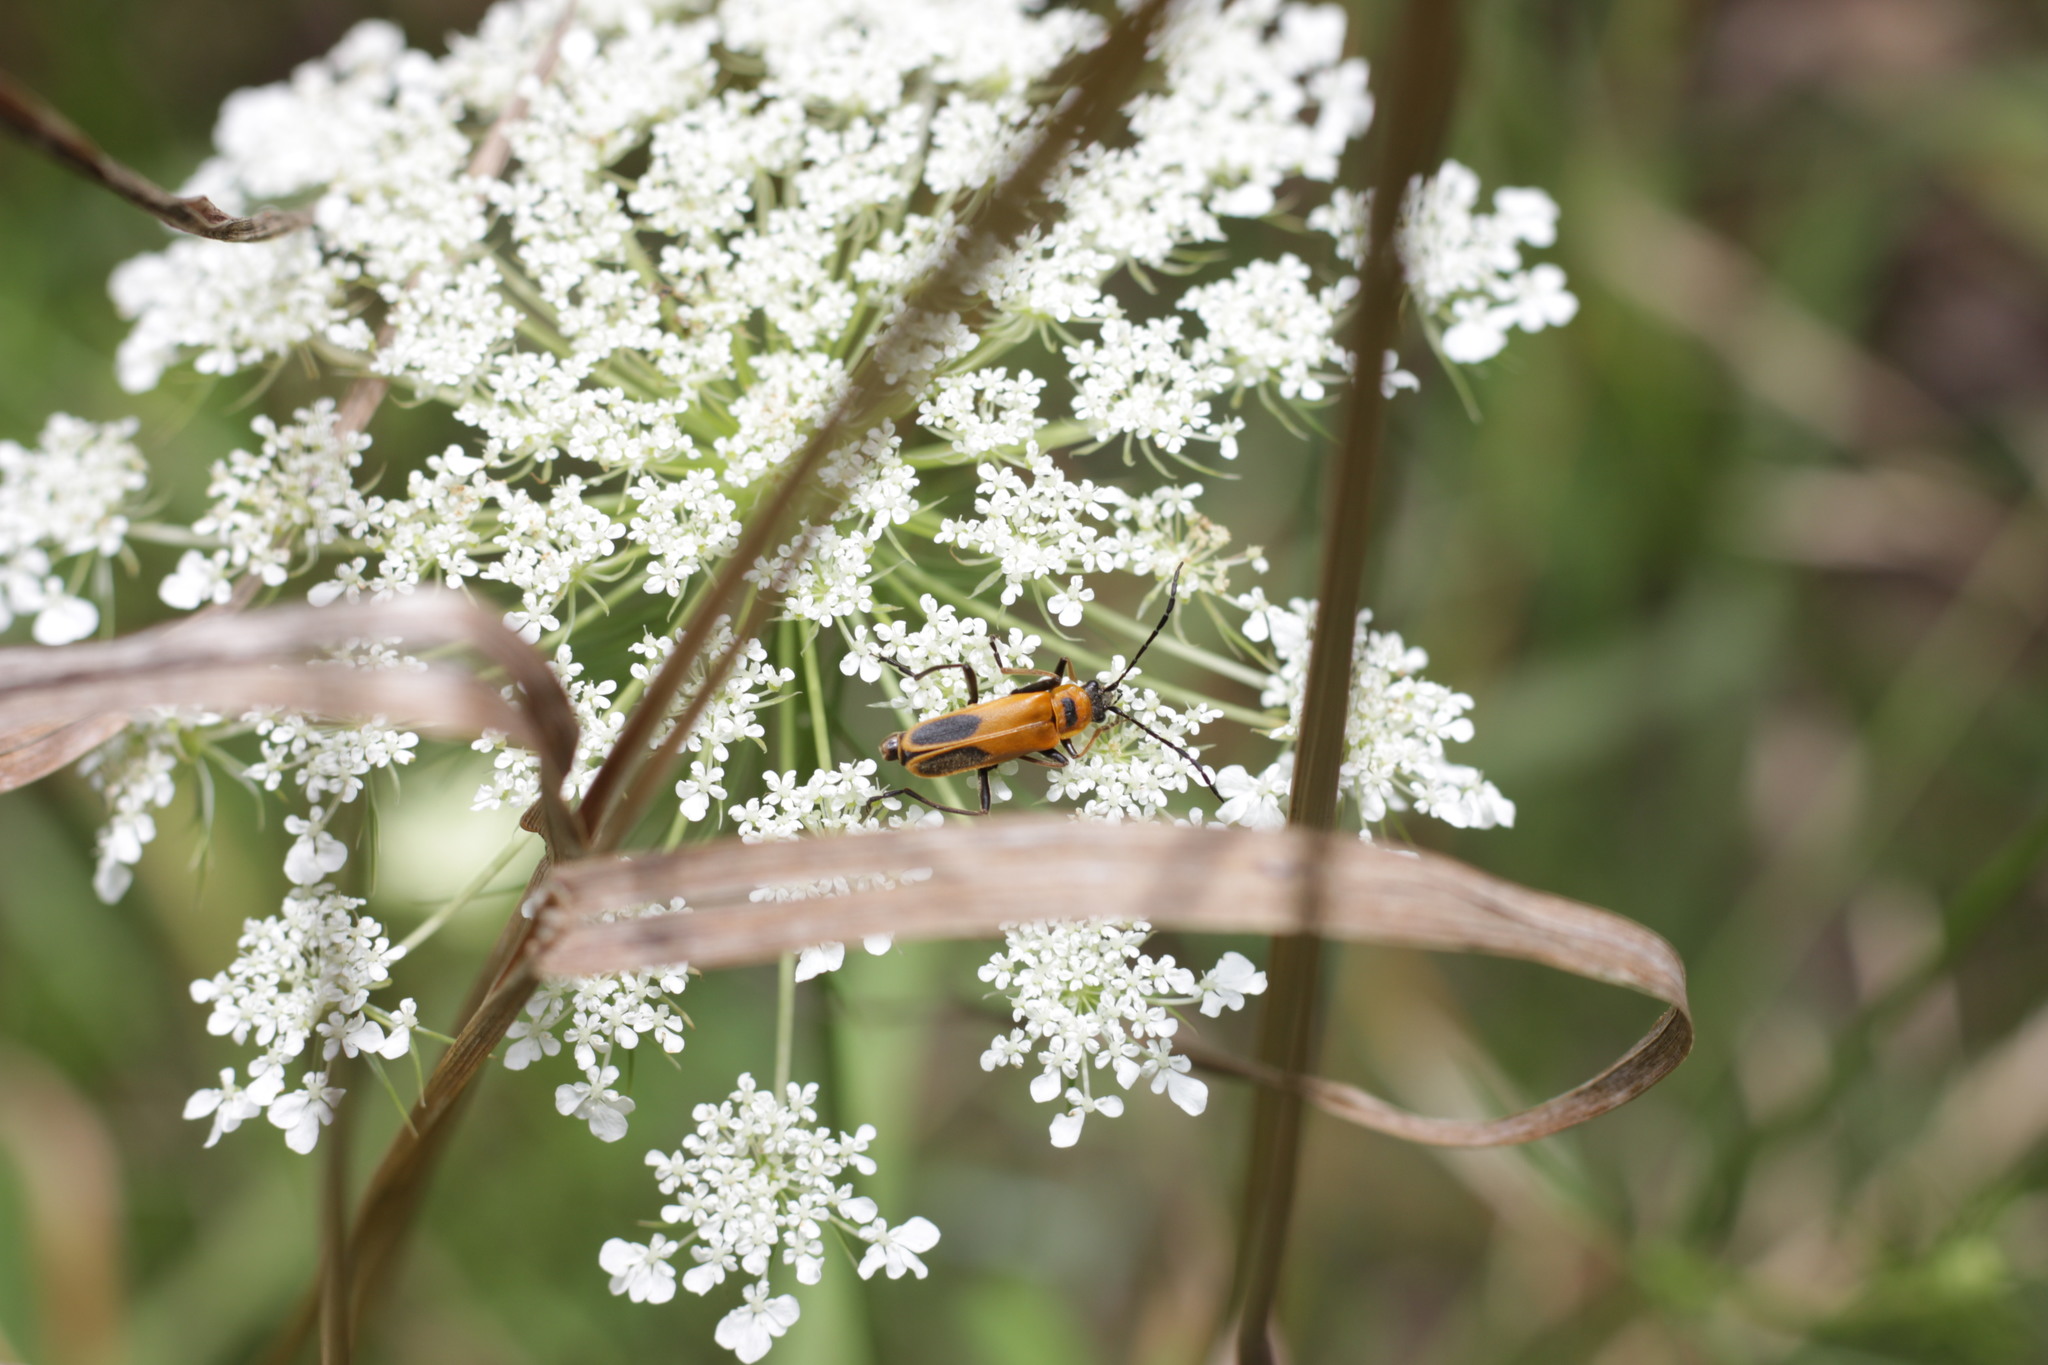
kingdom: Animalia
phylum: Arthropoda
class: Insecta
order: Coleoptera
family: Cantharidae
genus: Chauliognathus
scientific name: Chauliognathus pensylvanicus
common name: Goldenrod soldier beetle
